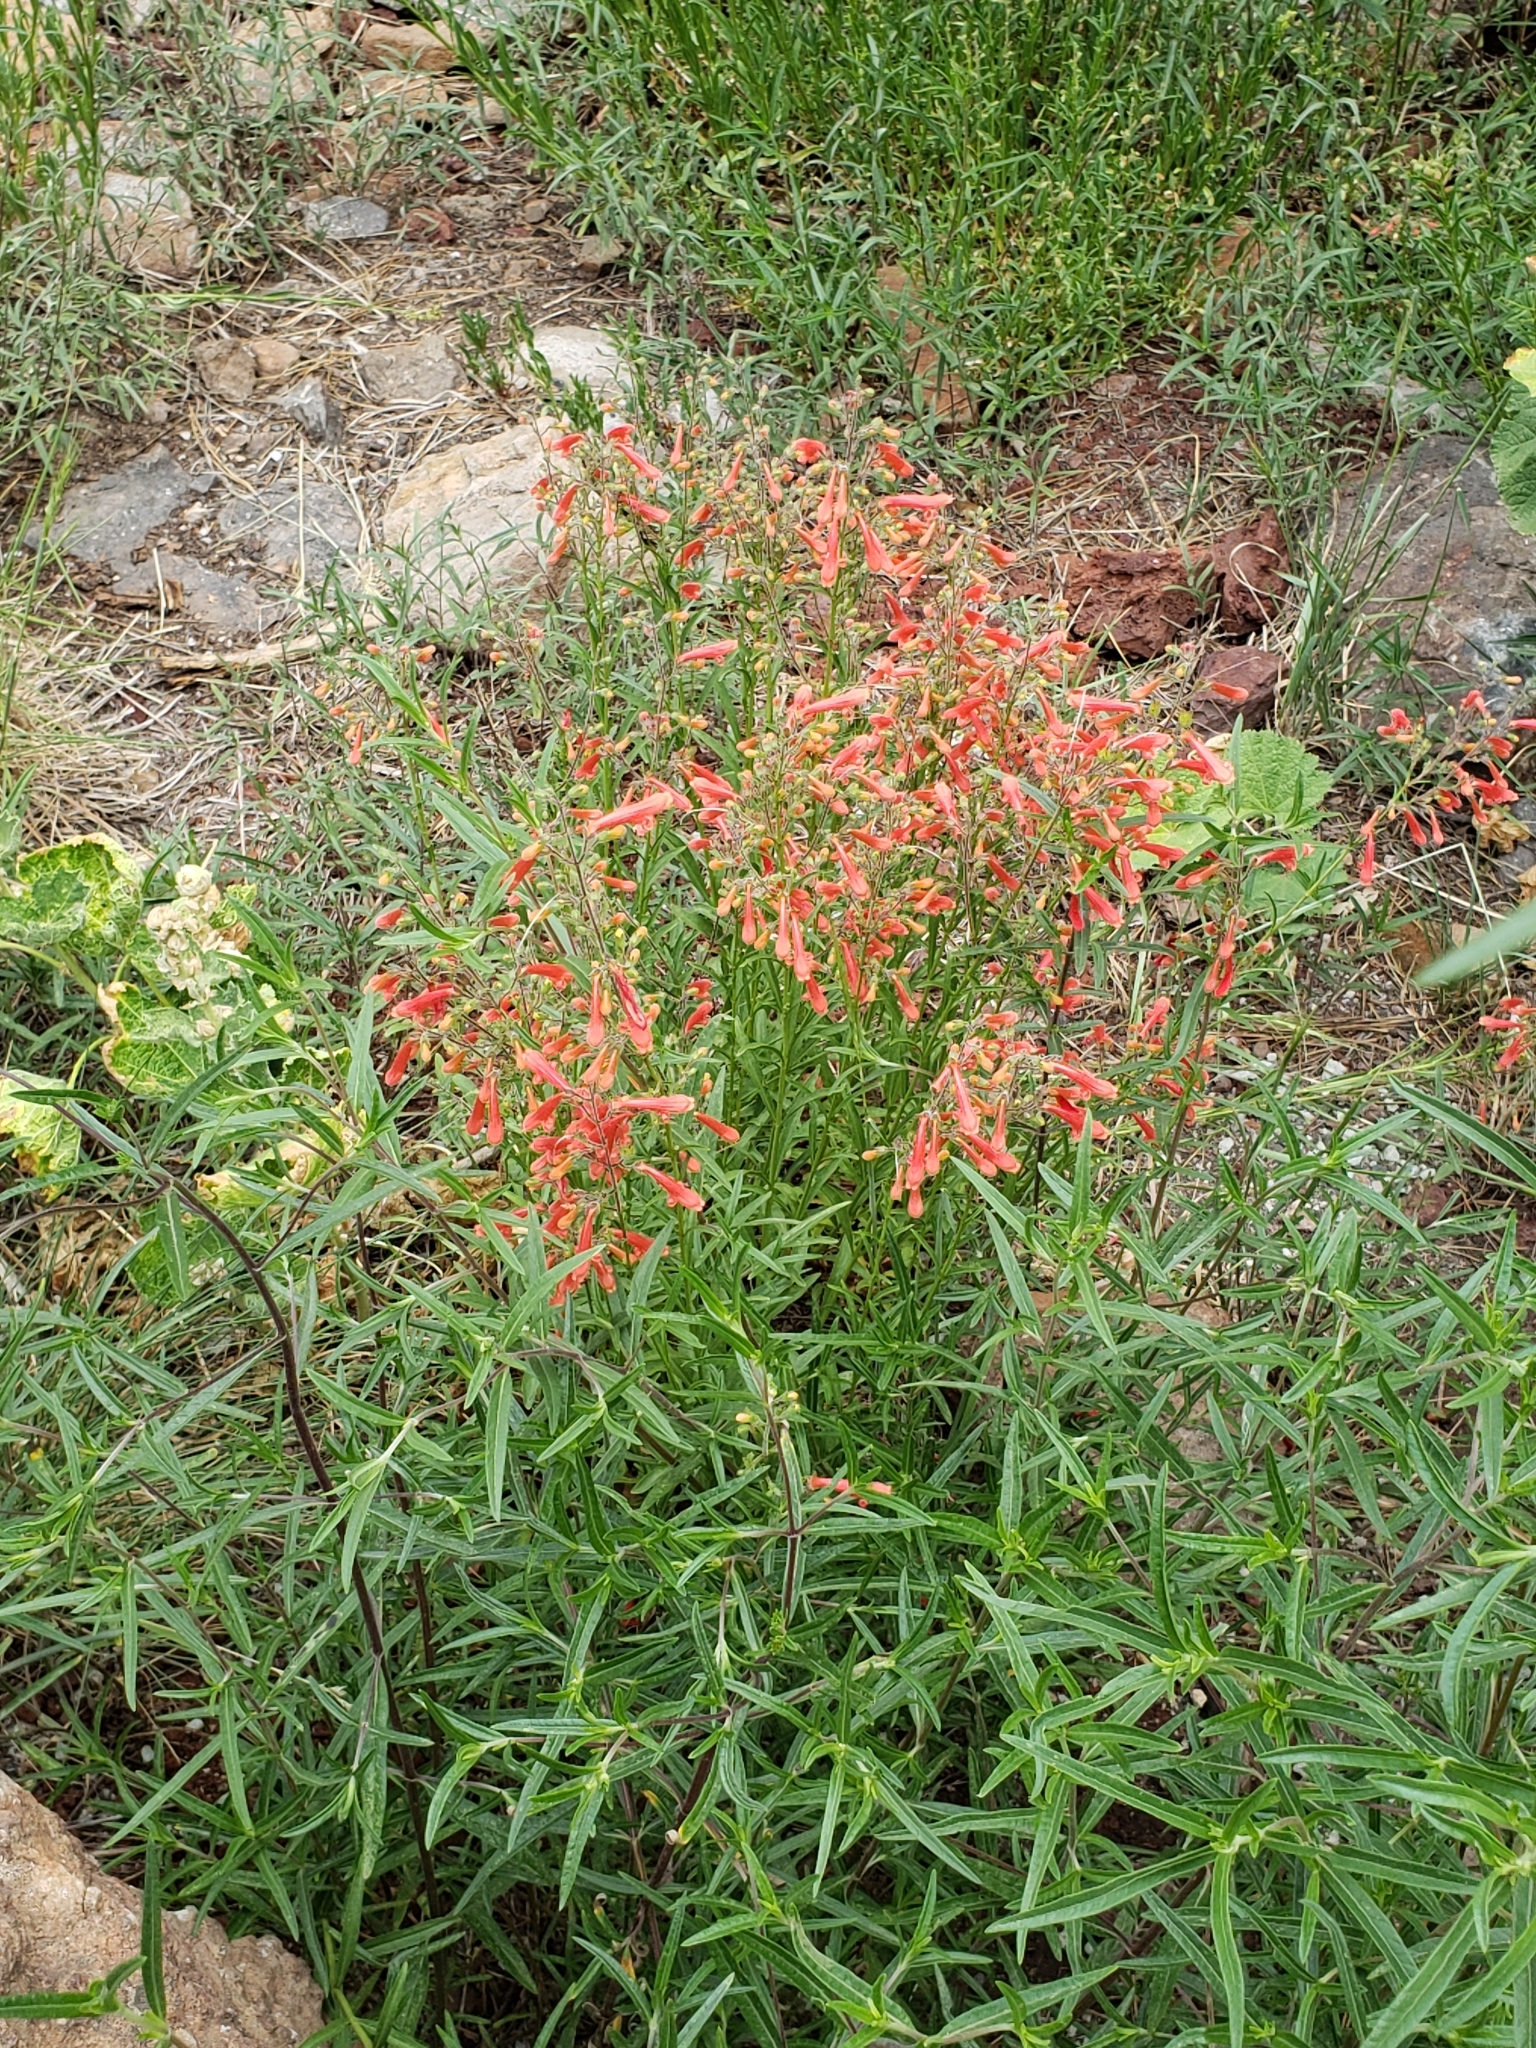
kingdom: Plantae
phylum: Tracheophyta
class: Magnoliopsida
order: Lamiales
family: Plantaginaceae
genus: Penstemon
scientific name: Penstemon barbatus
